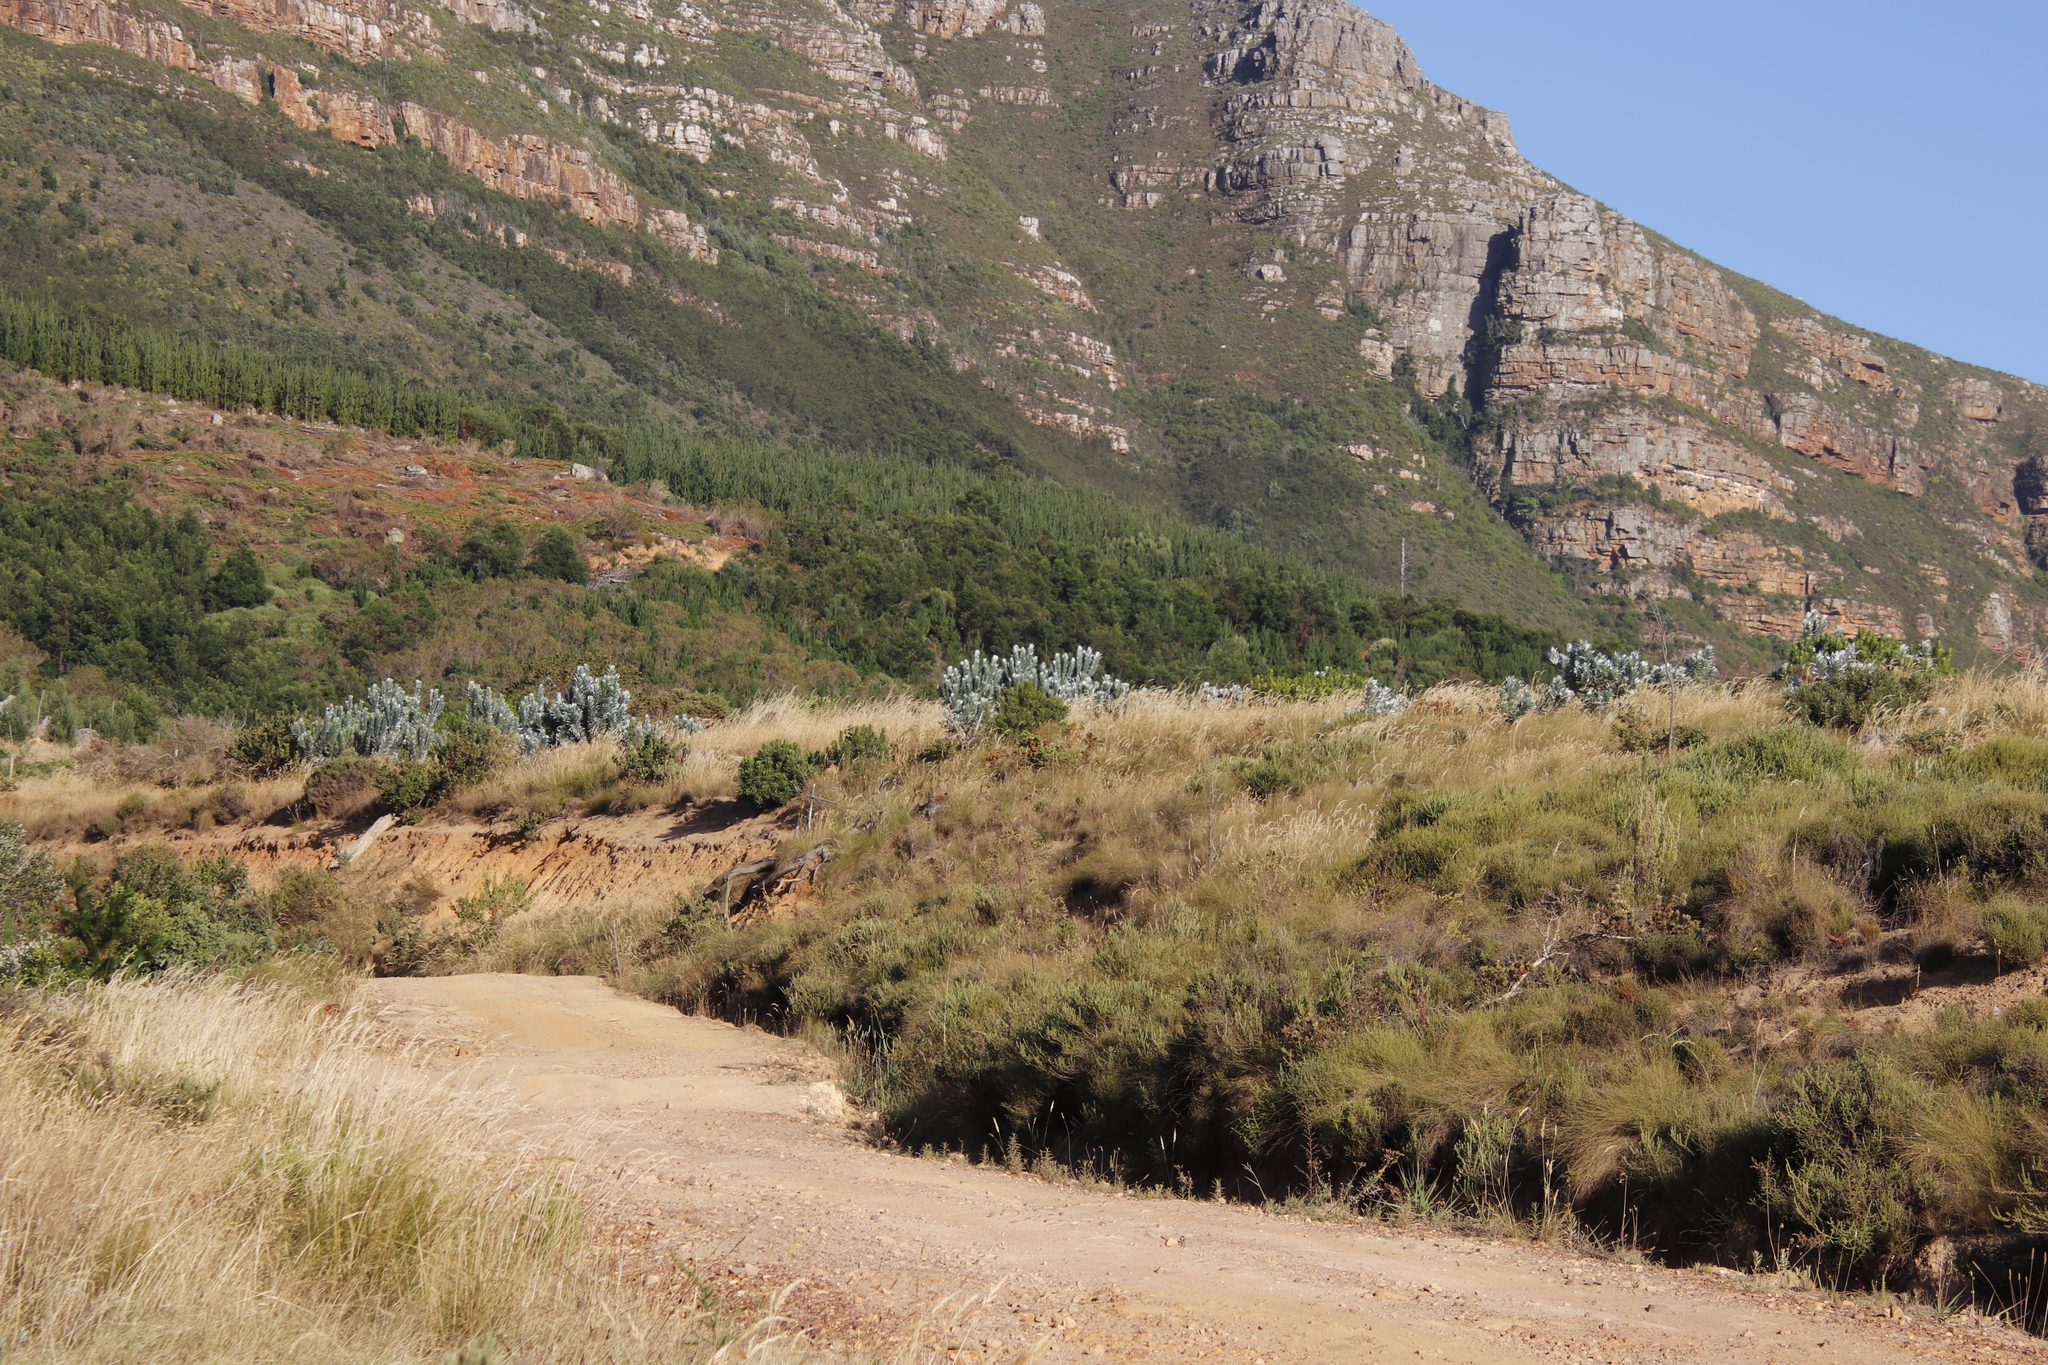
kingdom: Plantae
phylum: Tracheophyta
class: Magnoliopsida
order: Proteales
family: Proteaceae
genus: Leucadendron
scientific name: Leucadendron argenteum
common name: Cape silver tree
